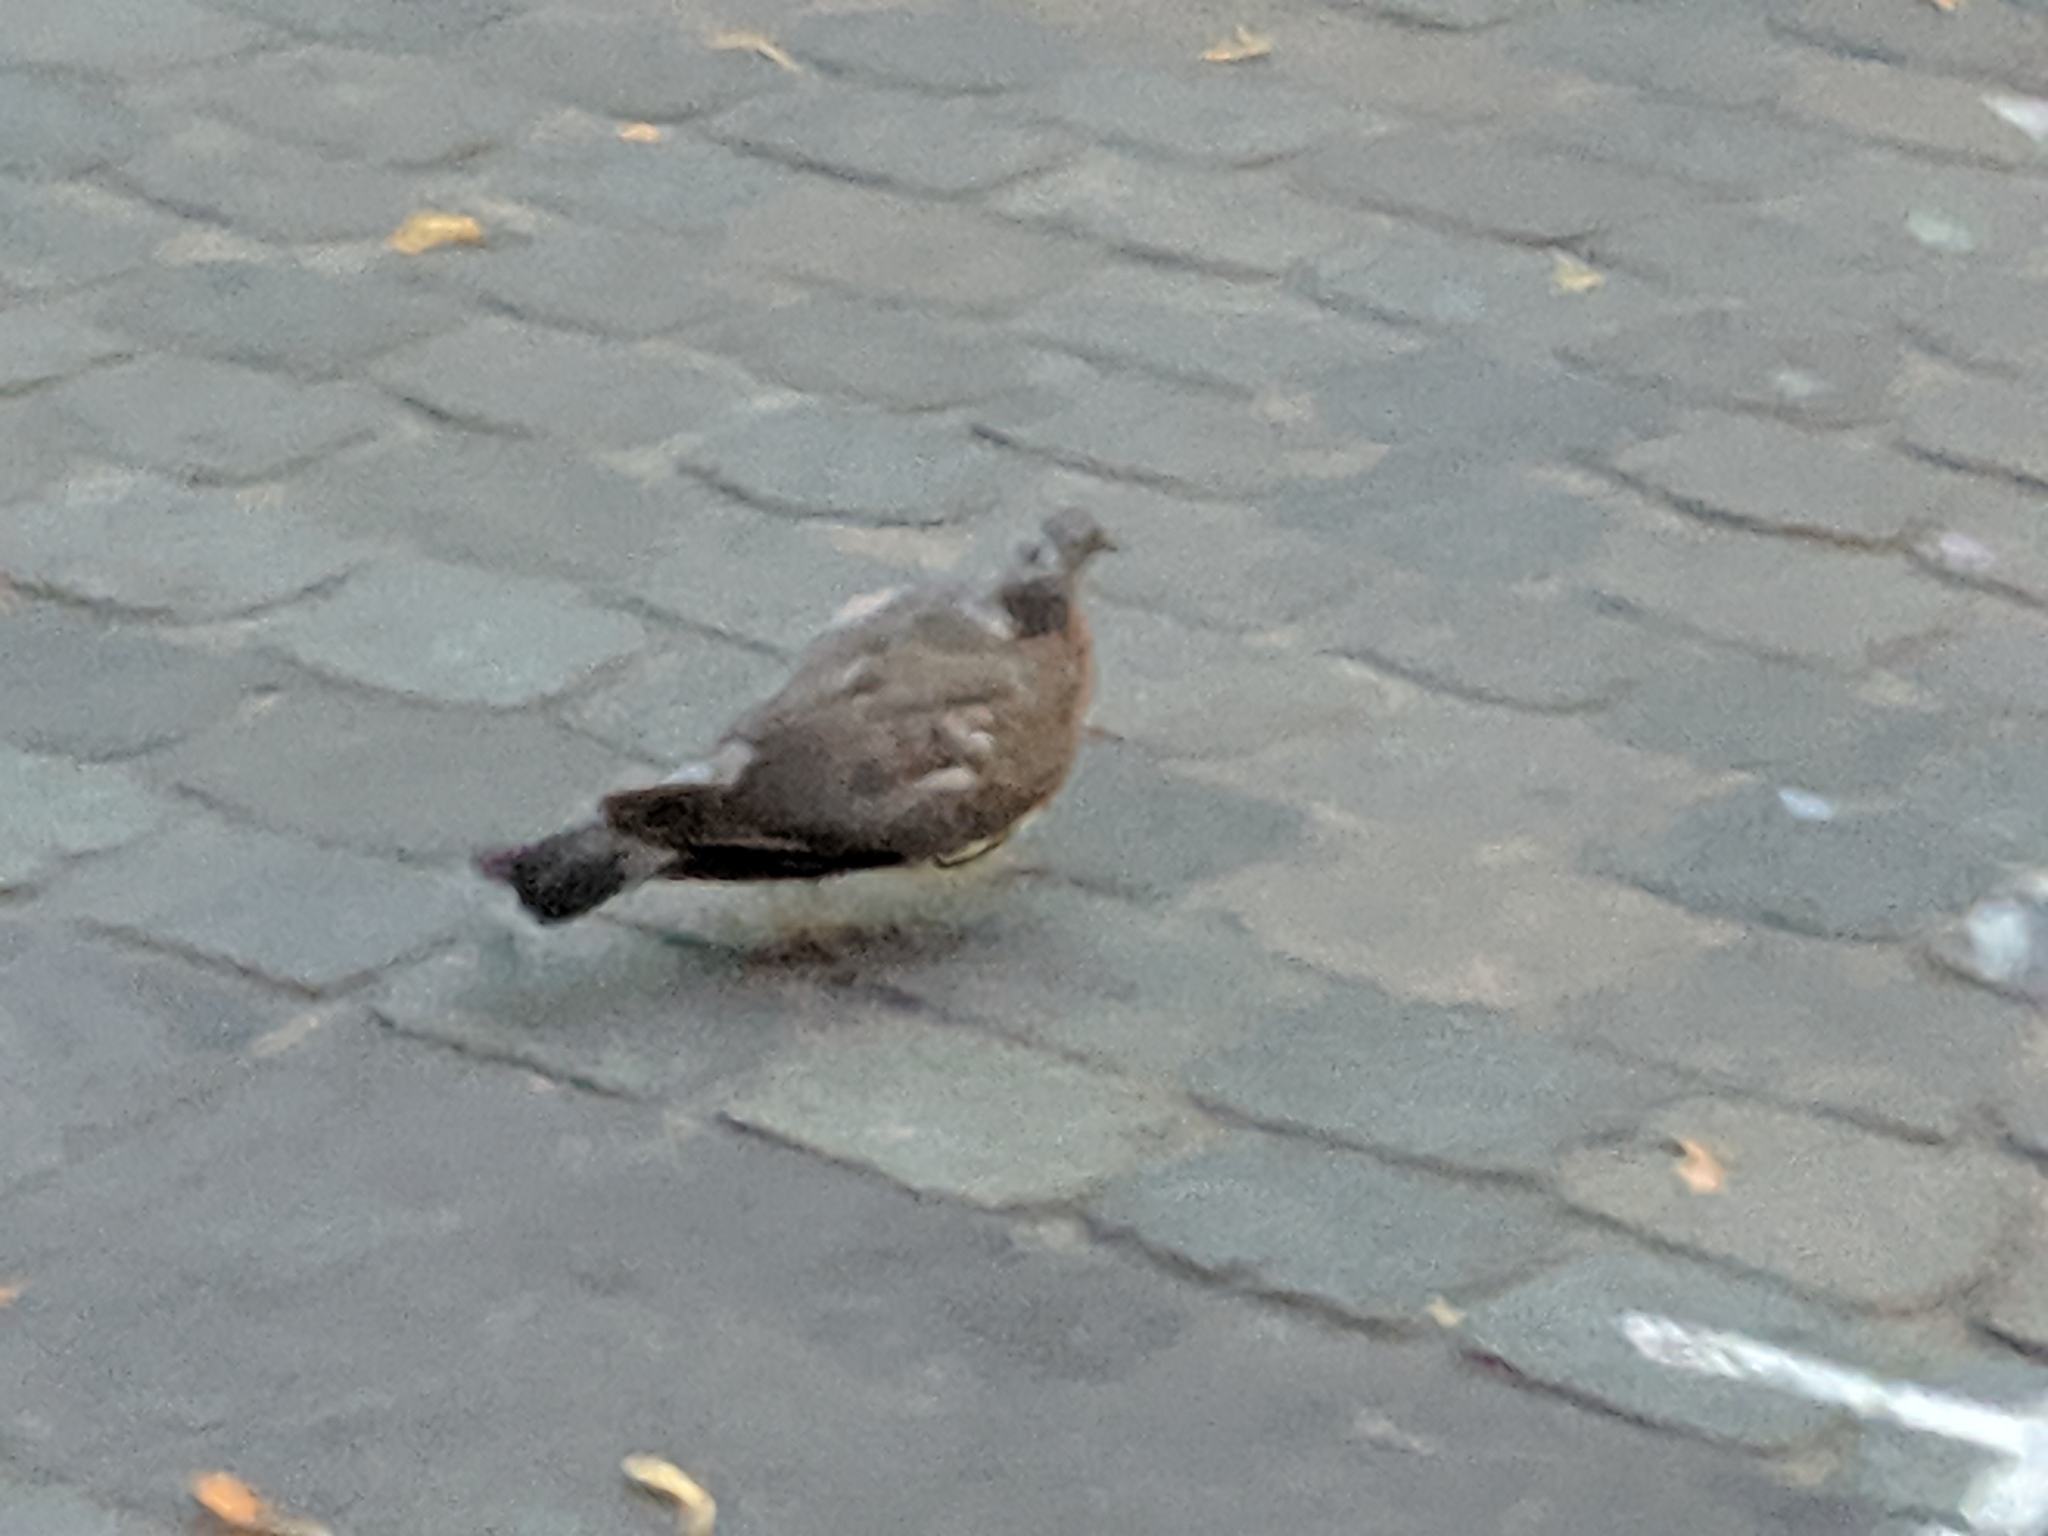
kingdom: Animalia
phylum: Chordata
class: Aves
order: Columbiformes
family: Columbidae
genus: Columba
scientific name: Columba livia
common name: Rock pigeon
